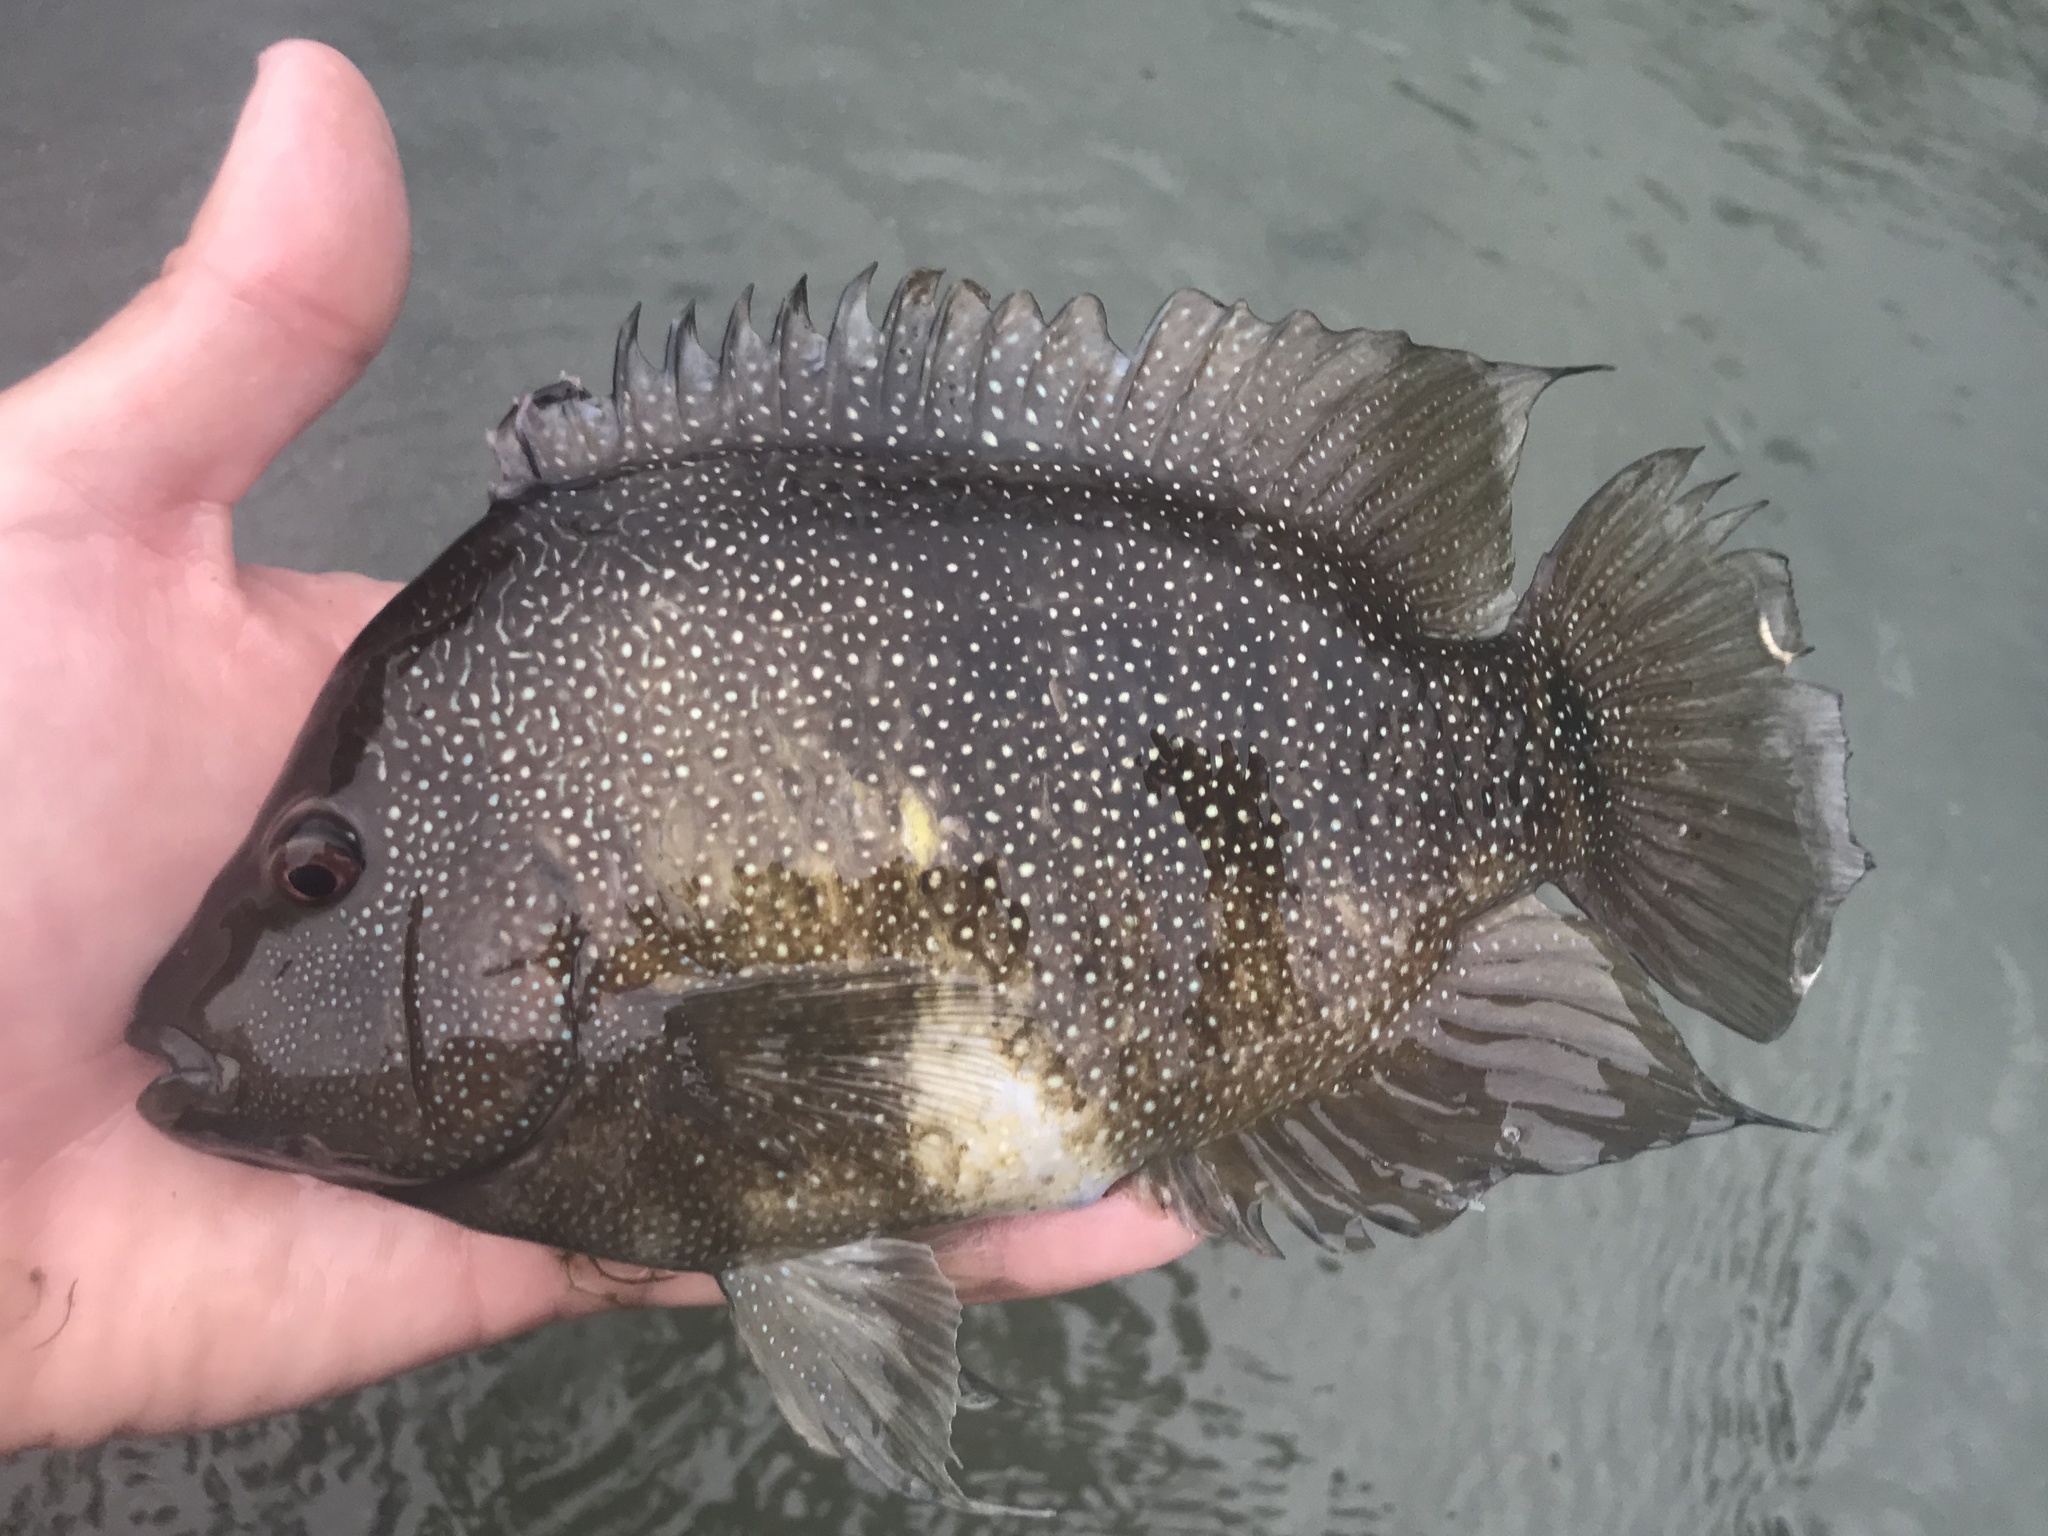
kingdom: Animalia
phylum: Chordata
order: Perciformes
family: Cichlidae
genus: Herichthys
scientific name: Herichthys cyanoguttatus
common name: Rio grande cichlid
